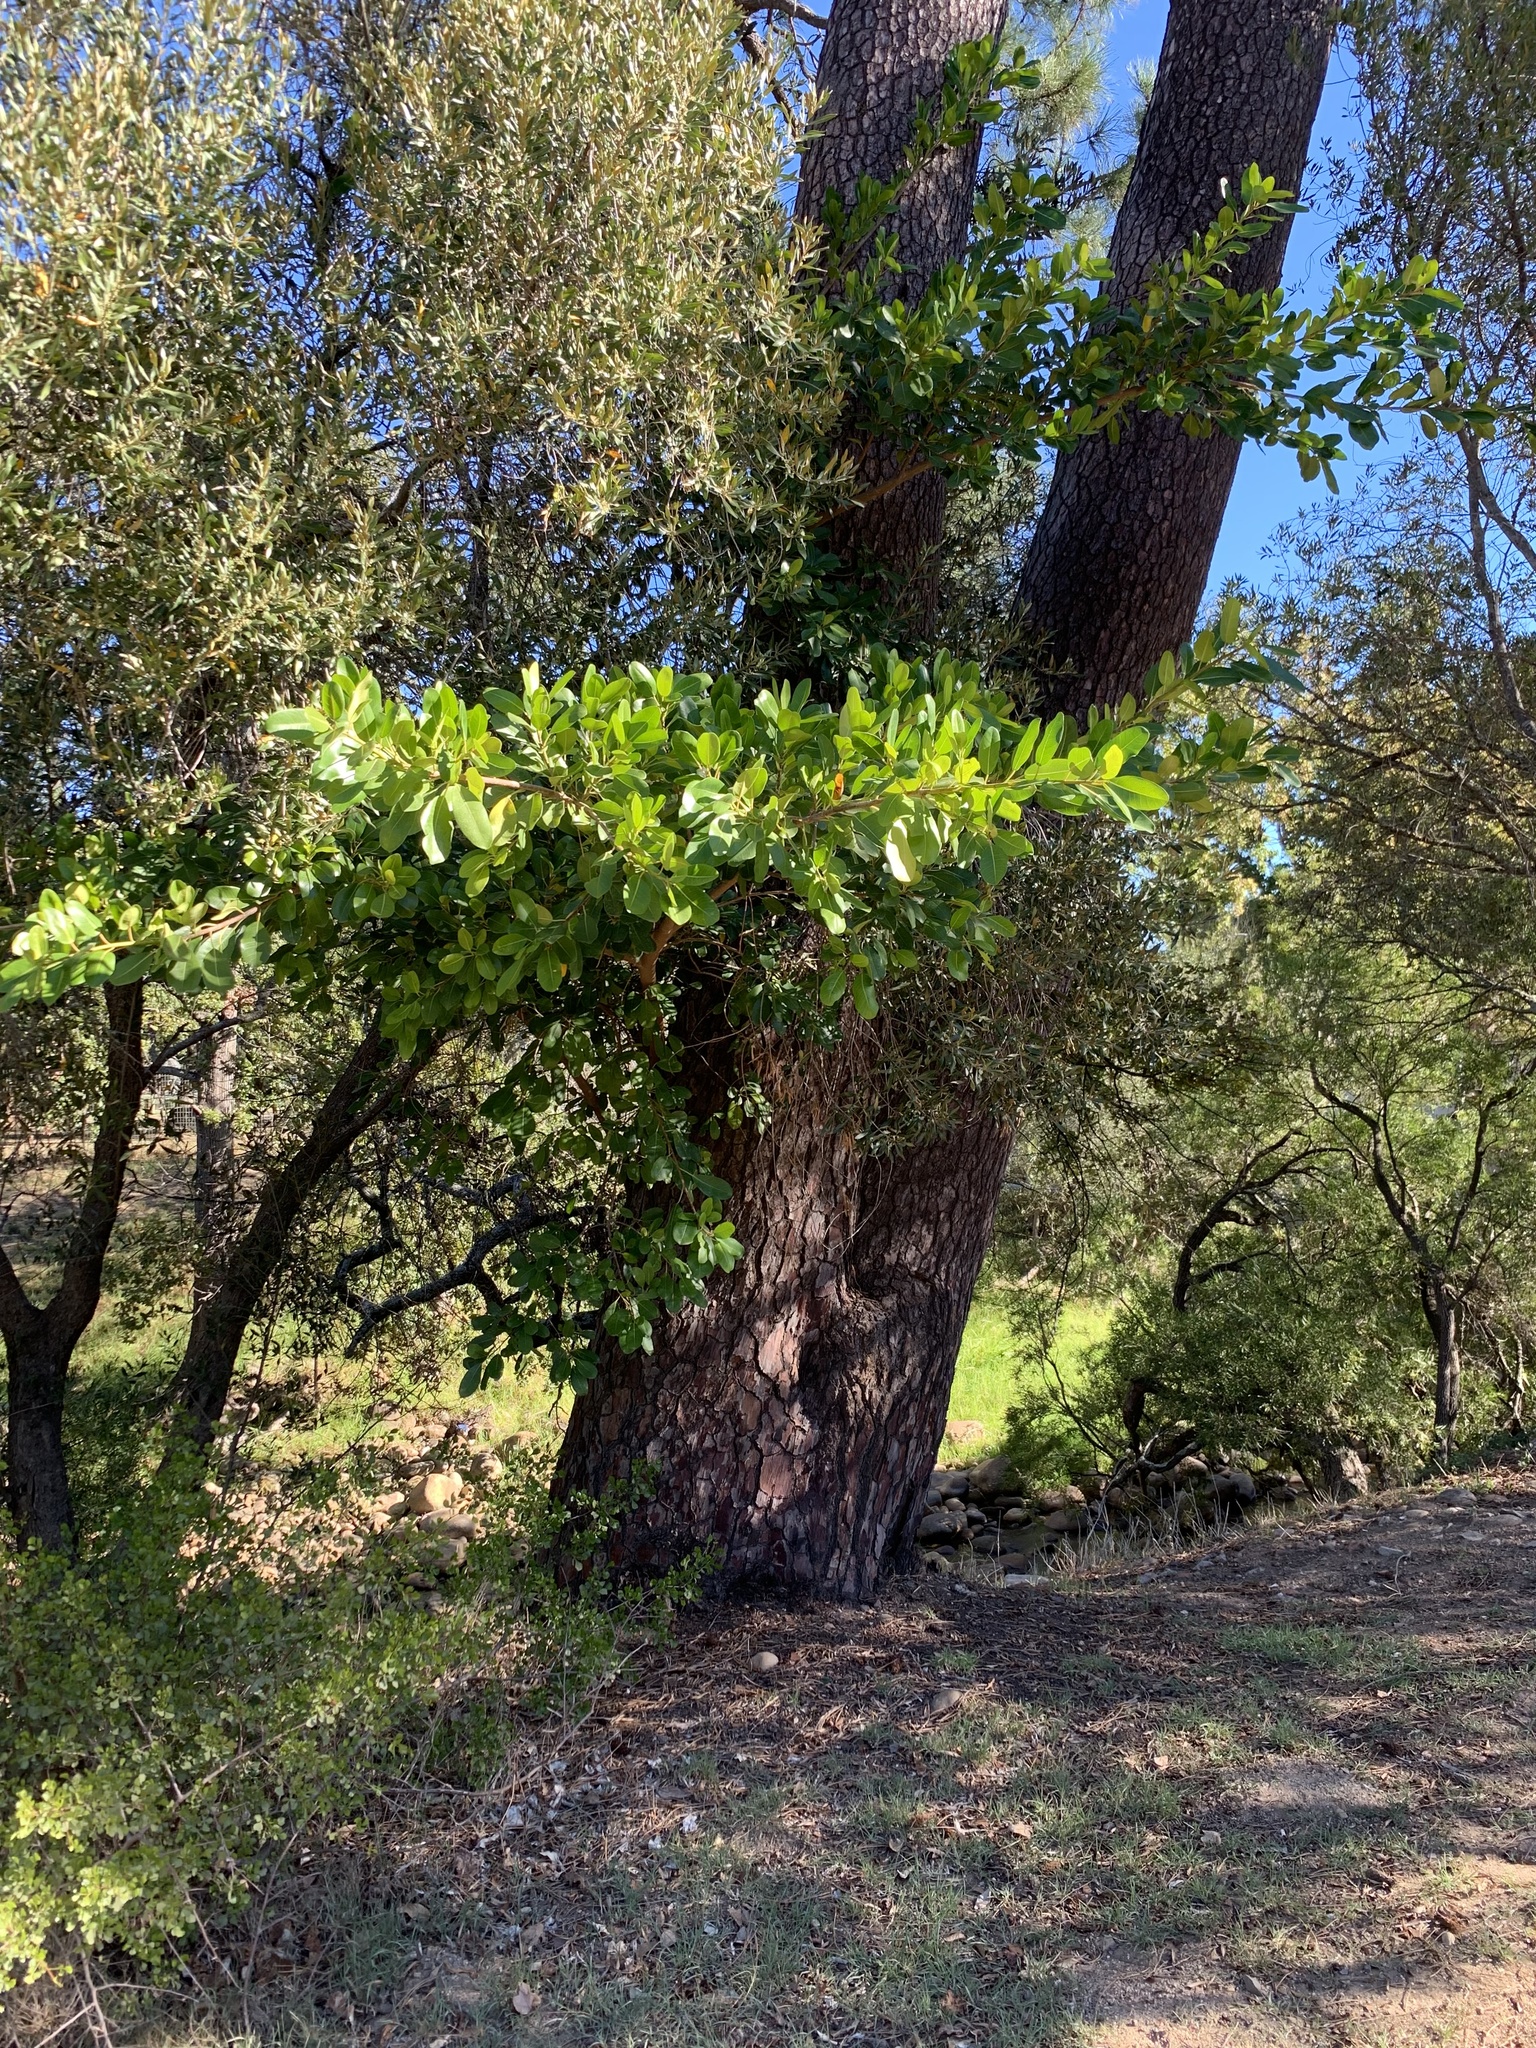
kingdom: Plantae
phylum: Tracheophyta
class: Magnoliopsida
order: Rosales
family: Moraceae
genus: Ficus
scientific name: Ficus thonningii
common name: Fig
